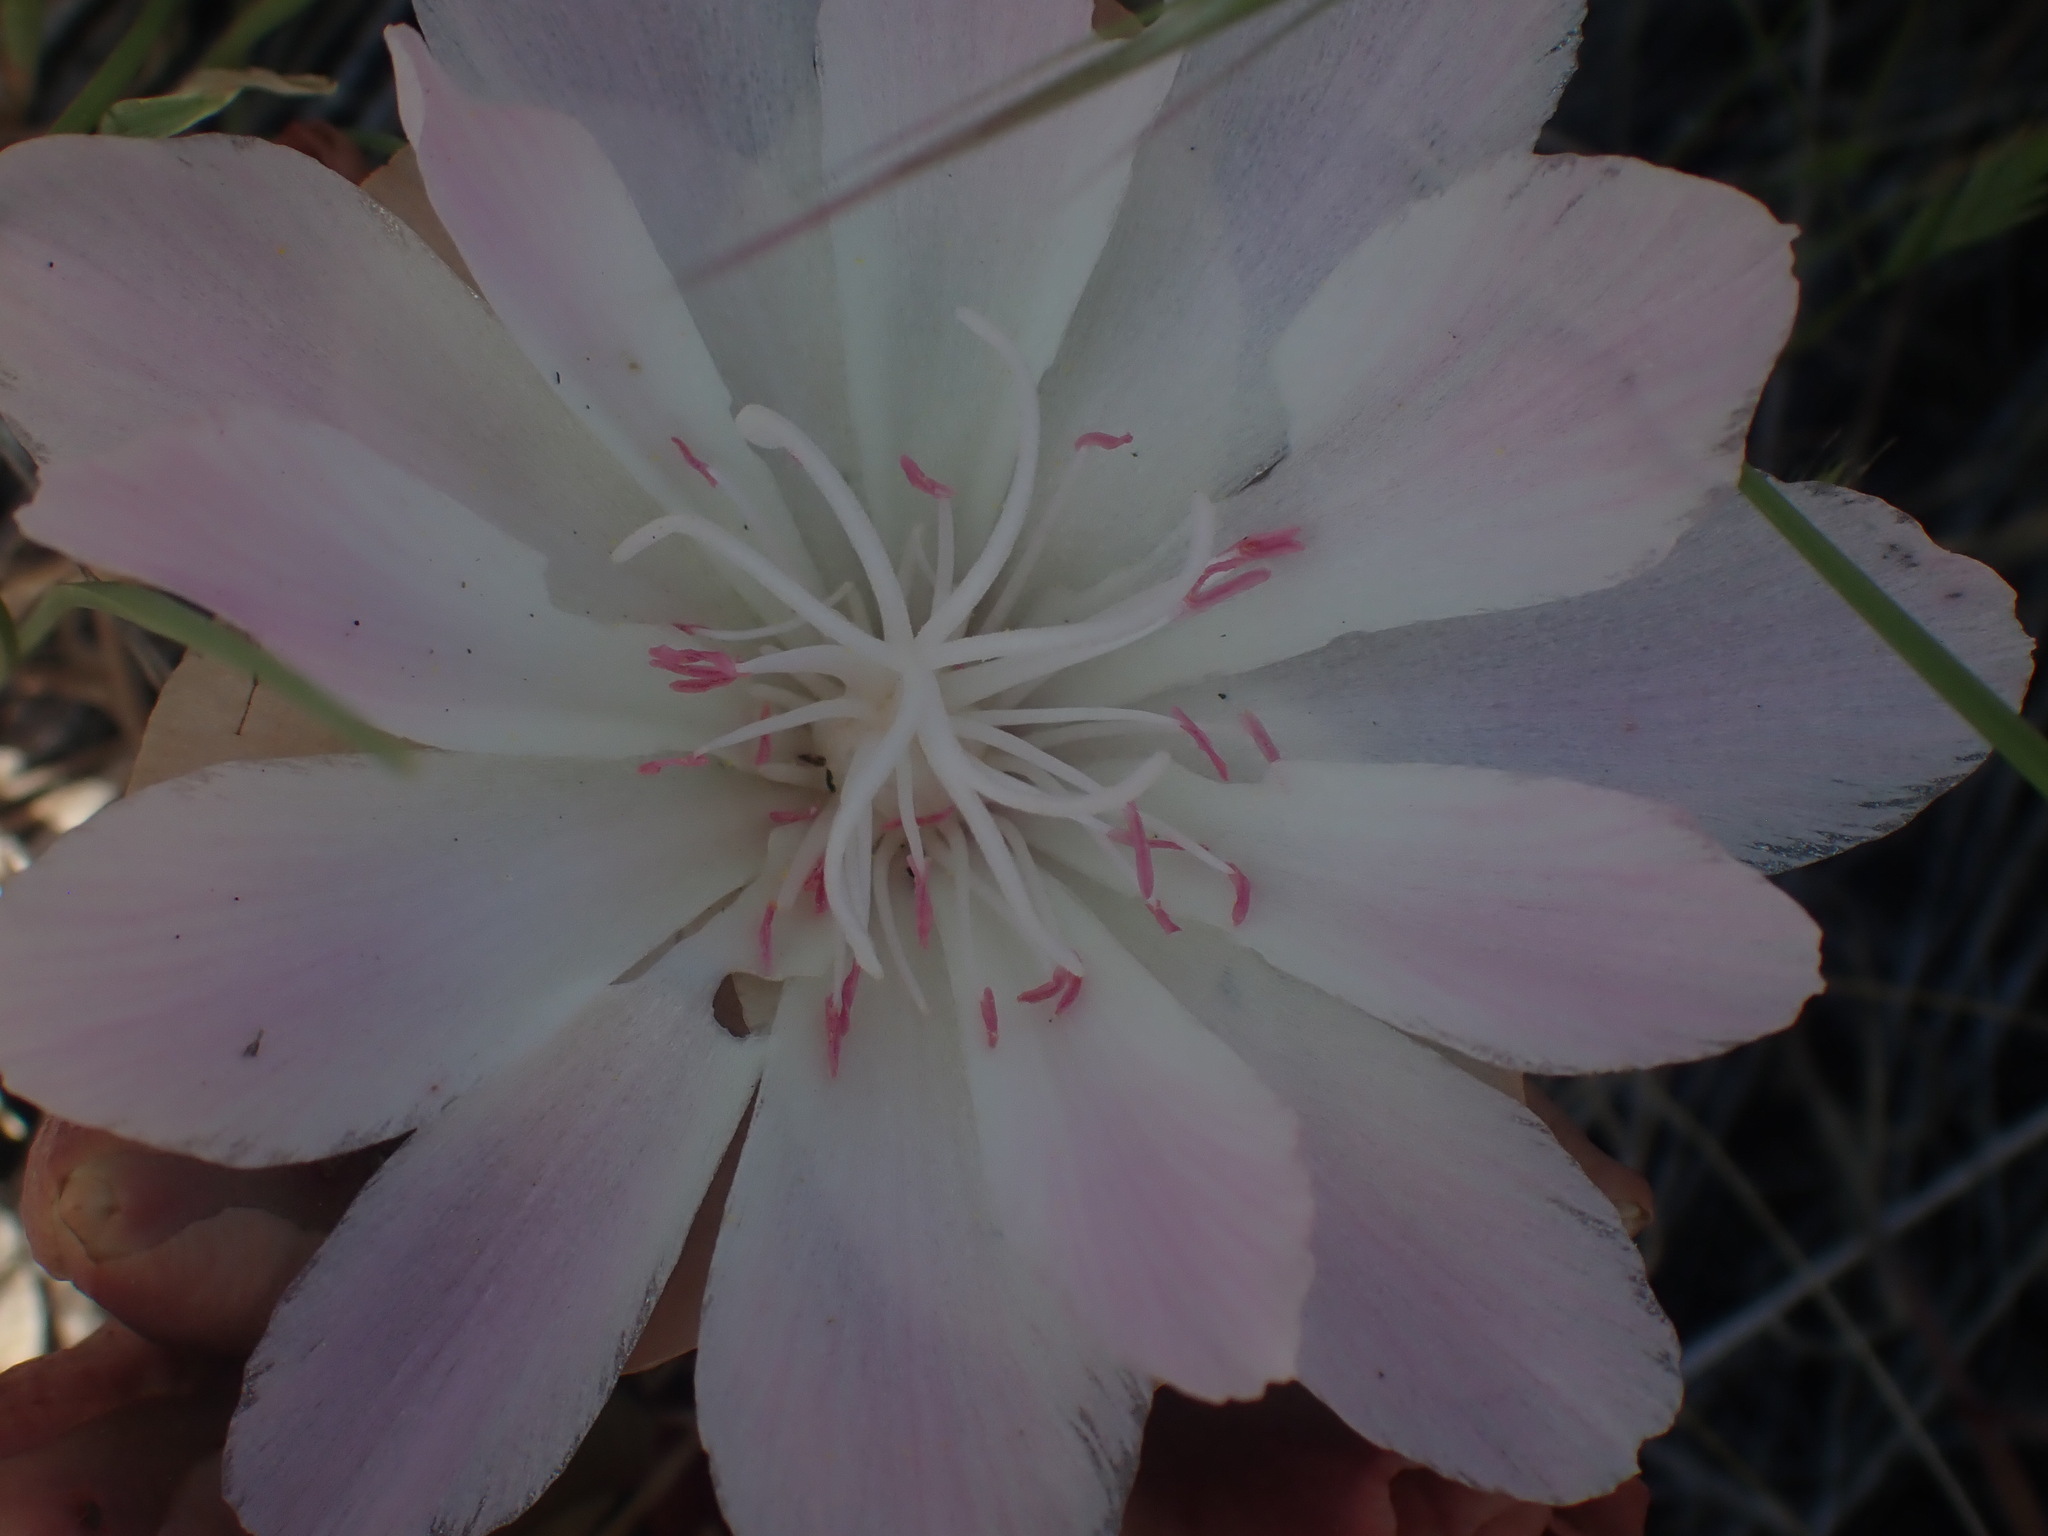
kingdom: Plantae
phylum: Tracheophyta
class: Magnoliopsida
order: Caryophyllales
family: Montiaceae
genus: Lewisia
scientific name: Lewisia rediviva
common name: Bitter-root
